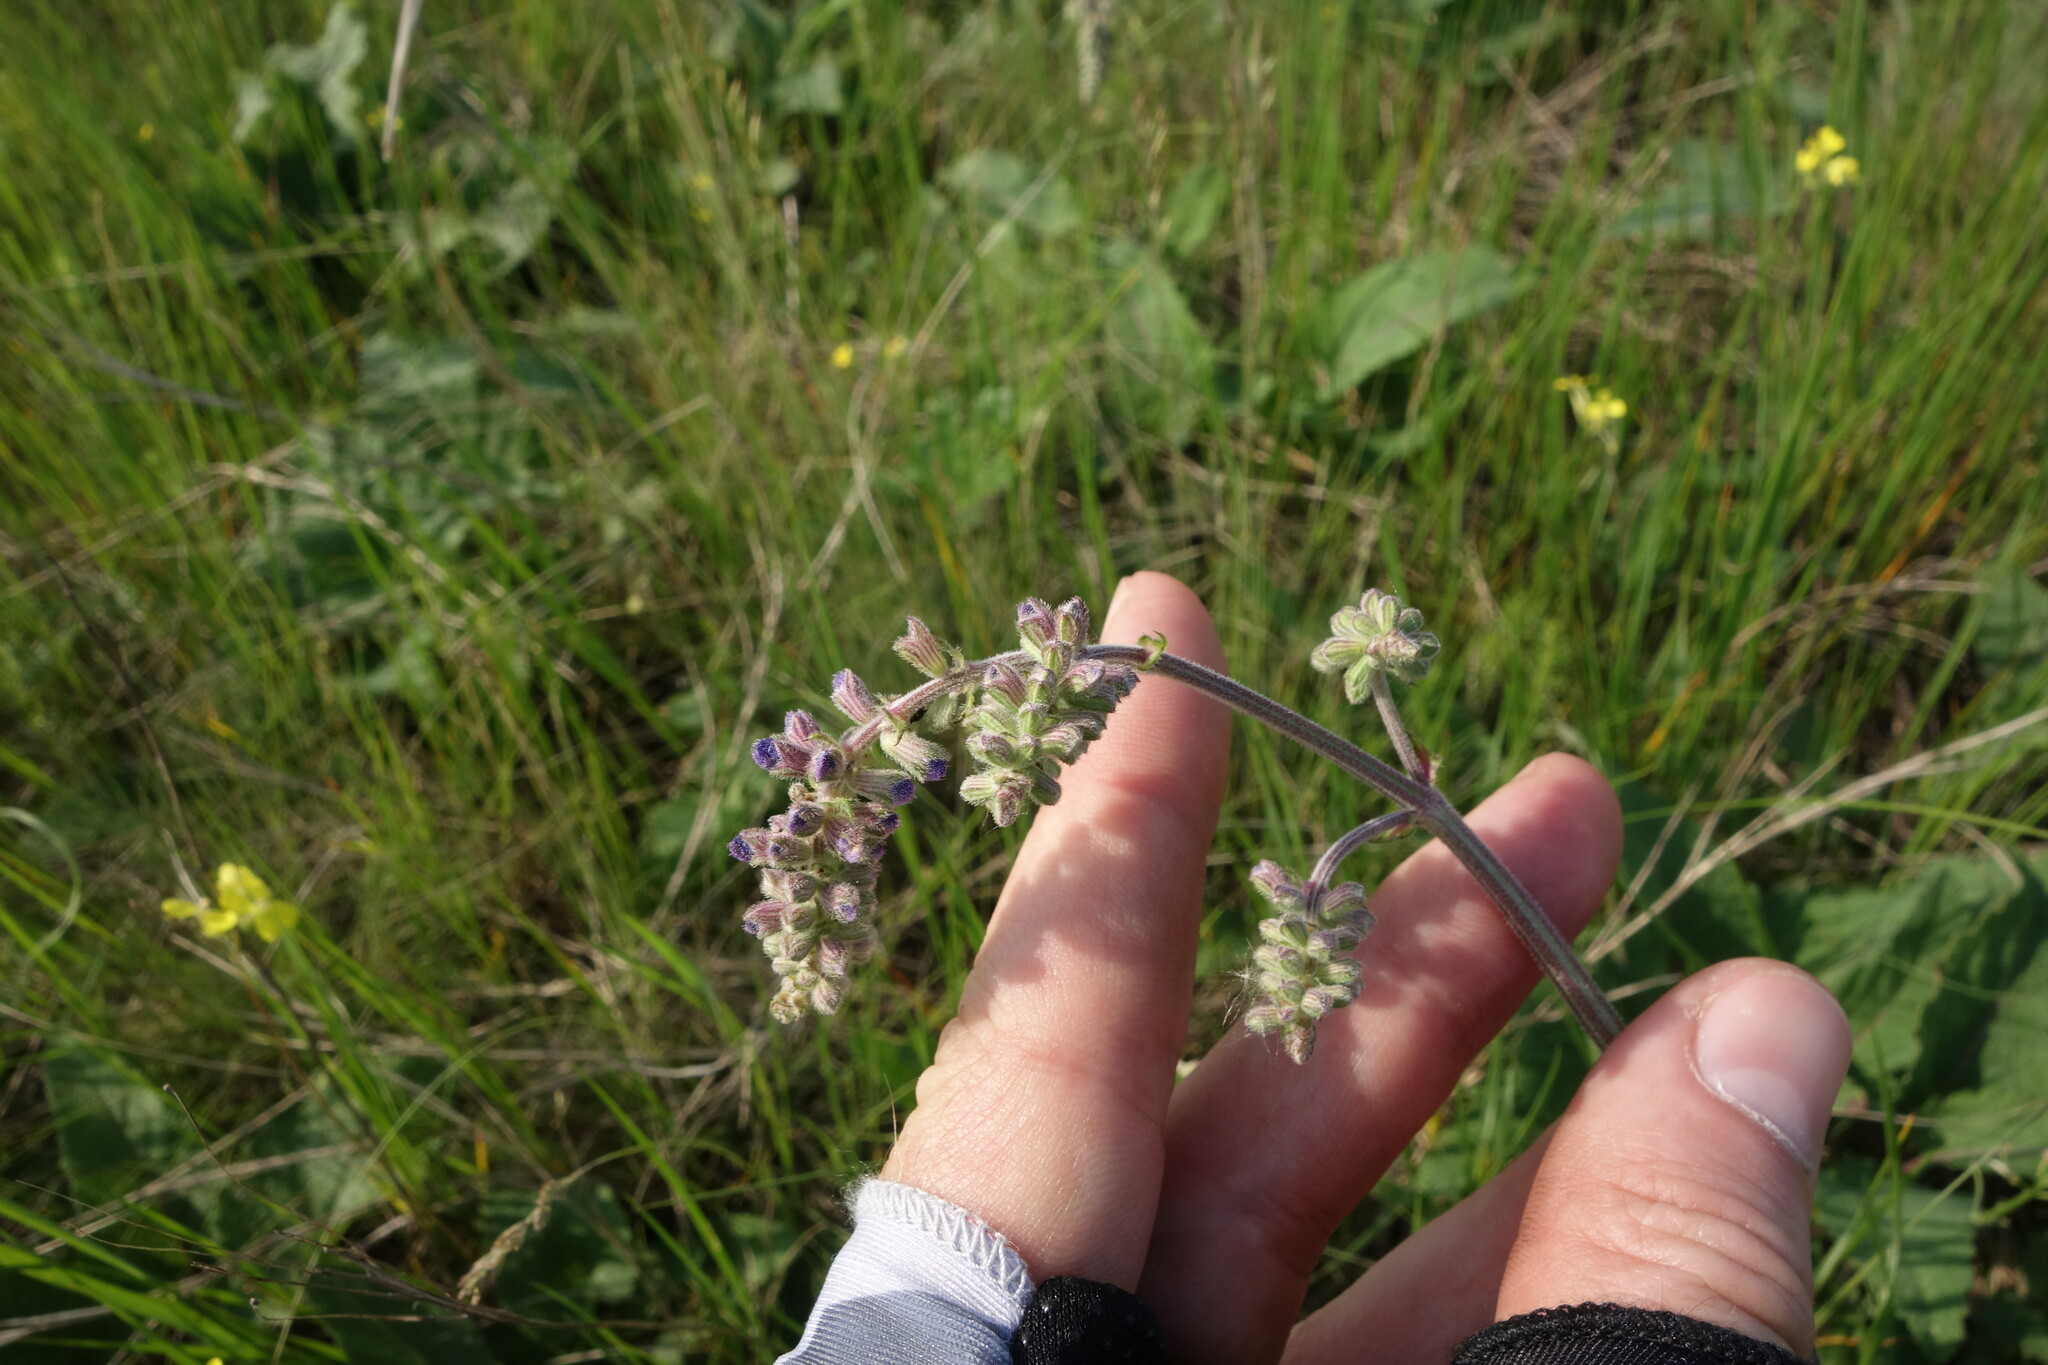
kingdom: Plantae
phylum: Tracheophyta
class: Magnoliopsida
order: Lamiales
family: Lamiaceae
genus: Salvia
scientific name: Salvia nutans
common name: Nodding sage
